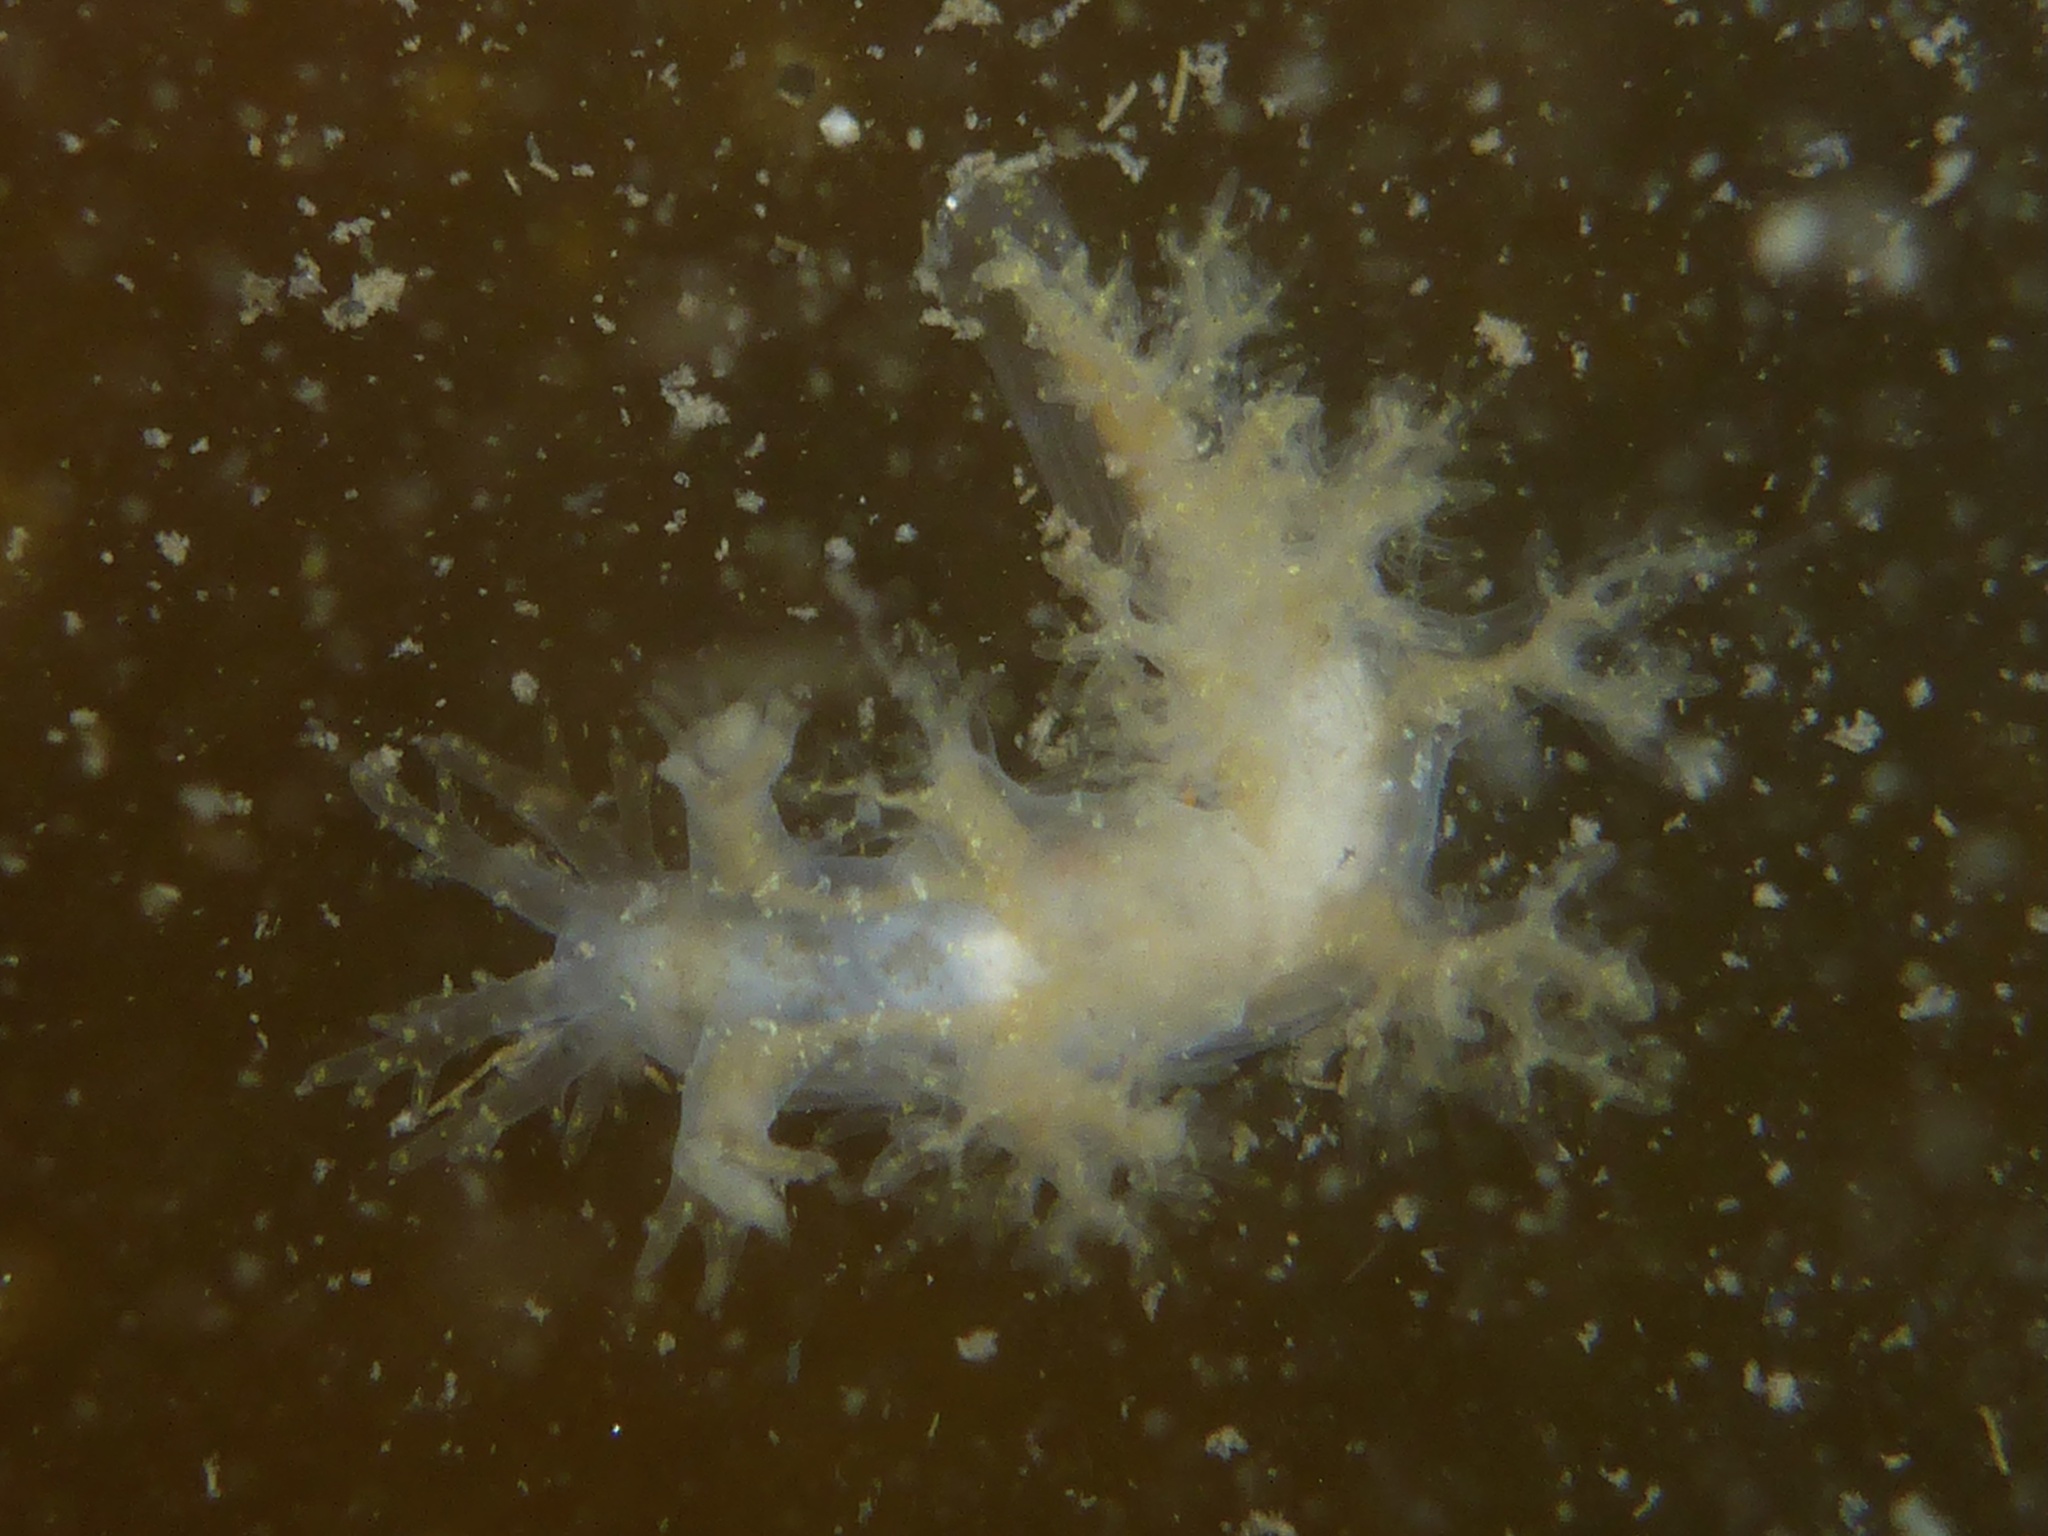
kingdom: Animalia
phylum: Mollusca
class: Gastropoda
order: Nudibranchia
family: Dendronotidae
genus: Dendronotus
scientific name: Dendronotus venustus
